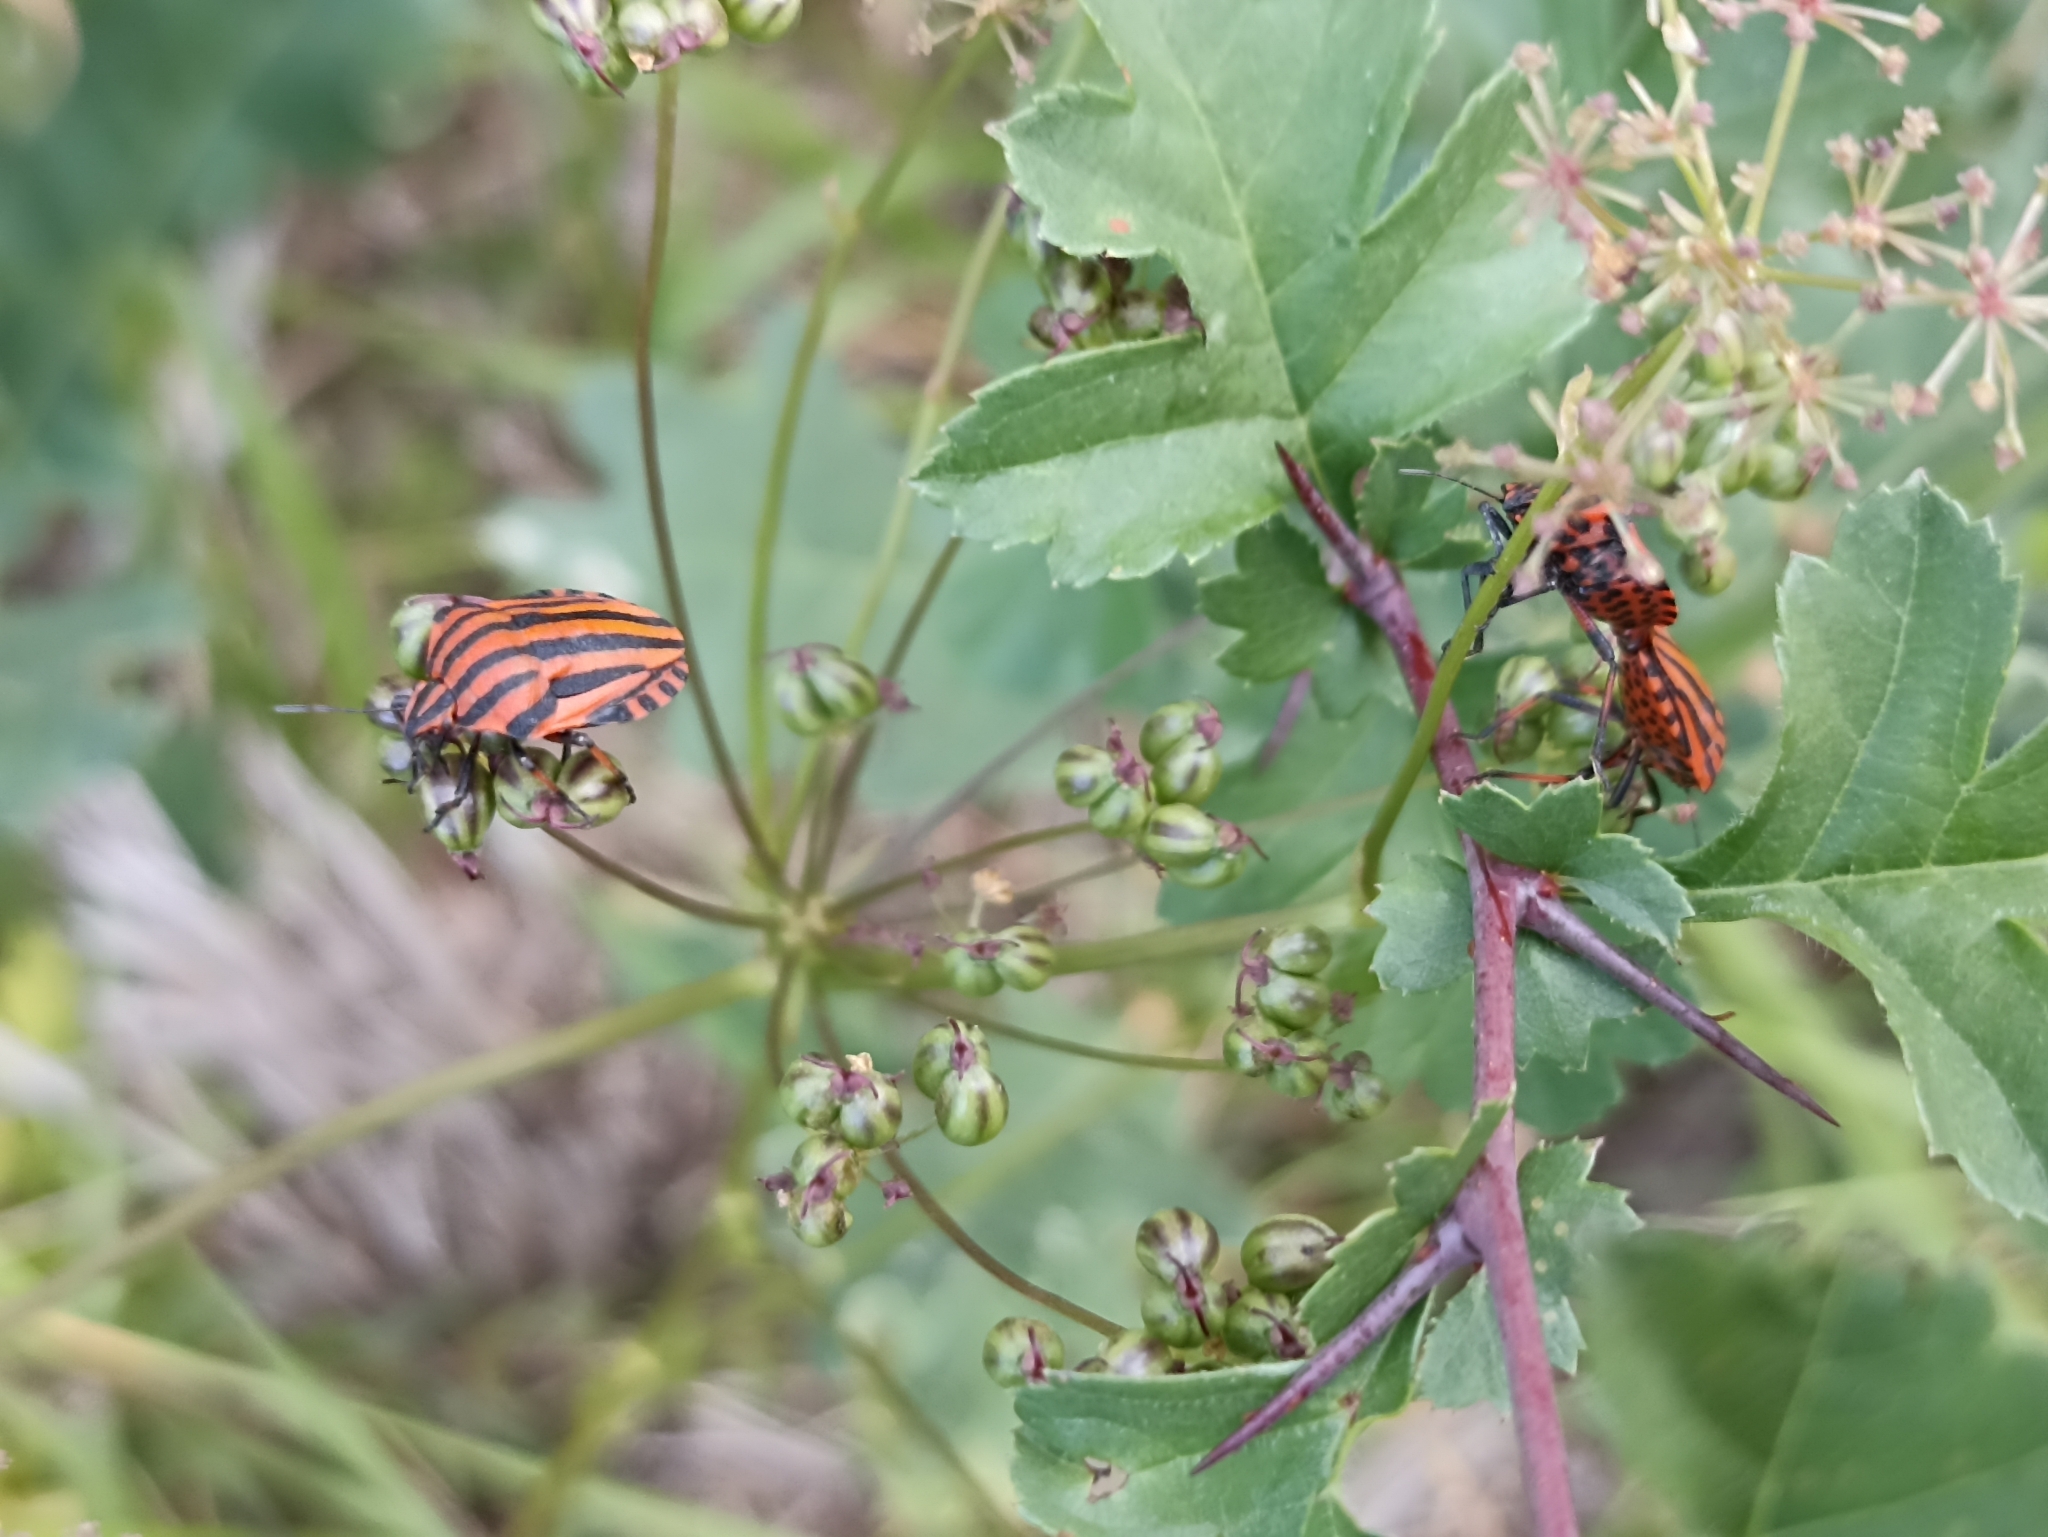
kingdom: Animalia
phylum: Arthropoda
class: Insecta
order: Hemiptera
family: Pentatomidae
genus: Graphosoma
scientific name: Graphosoma italicum
